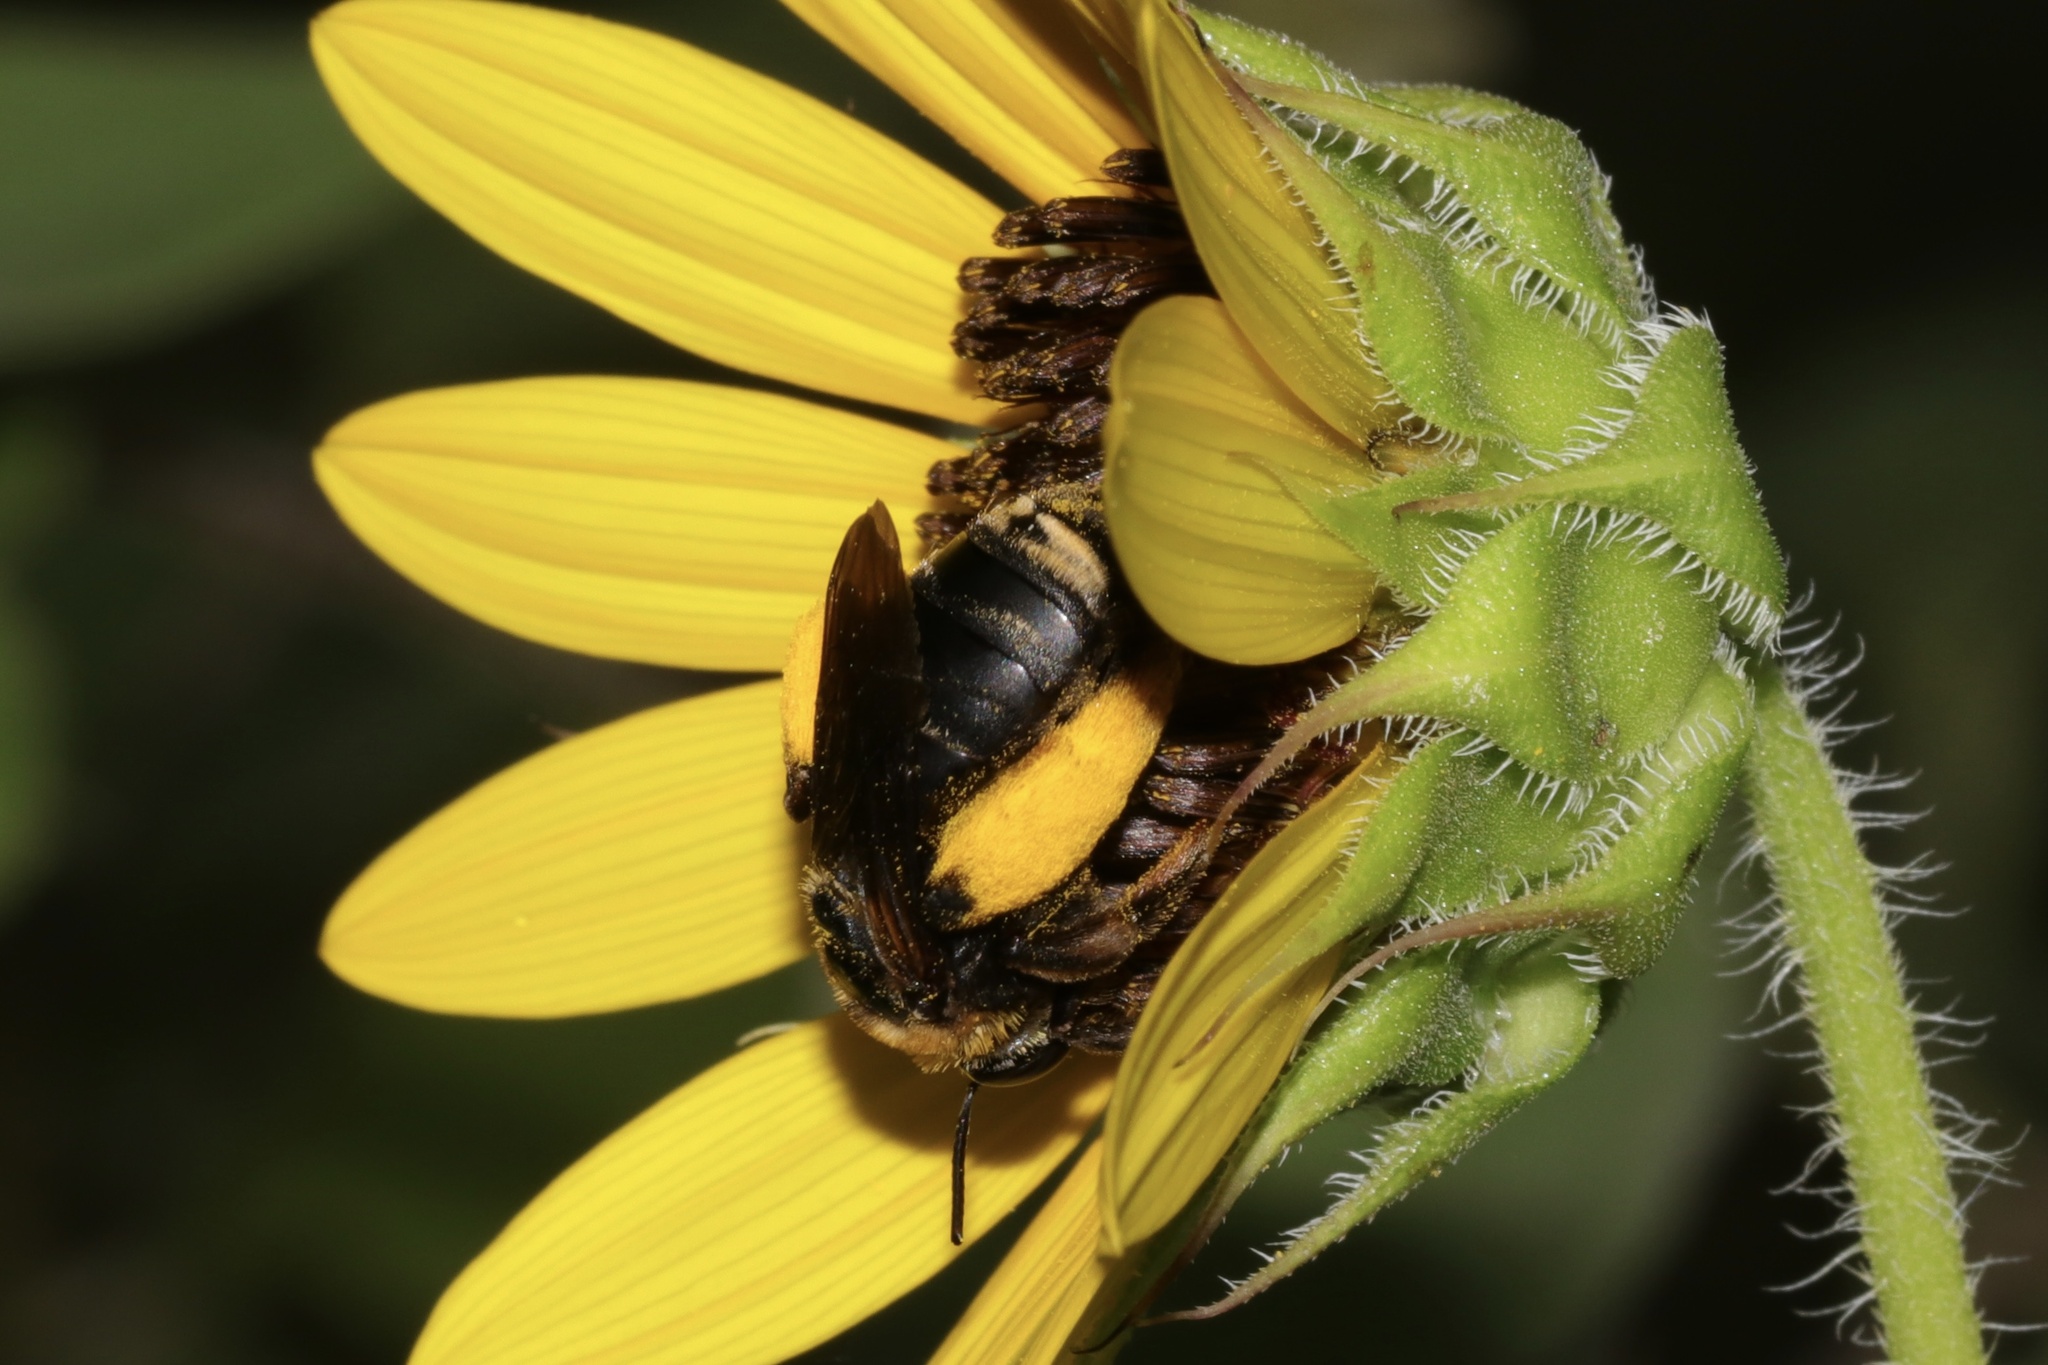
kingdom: Animalia
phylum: Arthropoda
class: Insecta
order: Hymenoptera
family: Apidae
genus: Svastra
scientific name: Svastra obliqua
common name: Oblique longhorn
